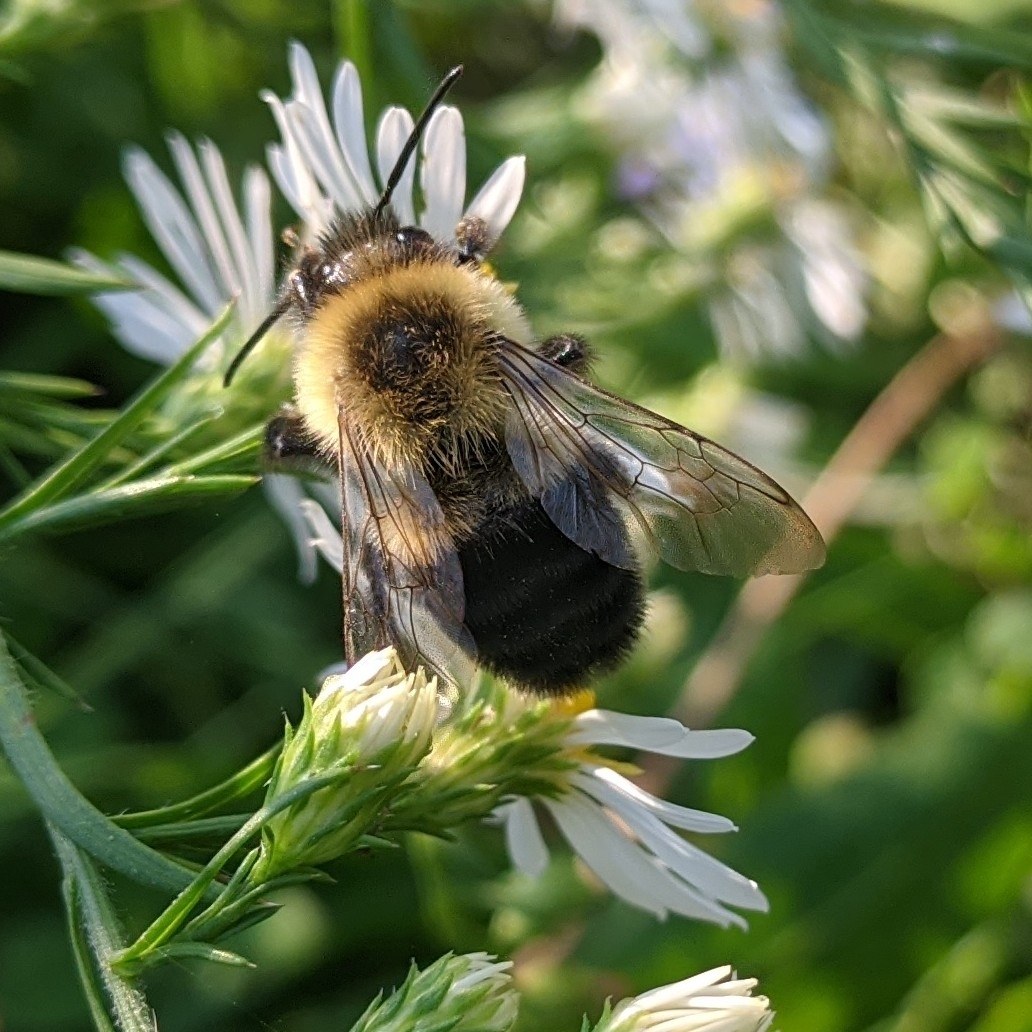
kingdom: Animalia
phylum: Arthropoda
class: Insecta
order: Hymenoptera
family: Apidae
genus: Bombus
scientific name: Bombus impatiens
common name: Common eastern bumble bee
